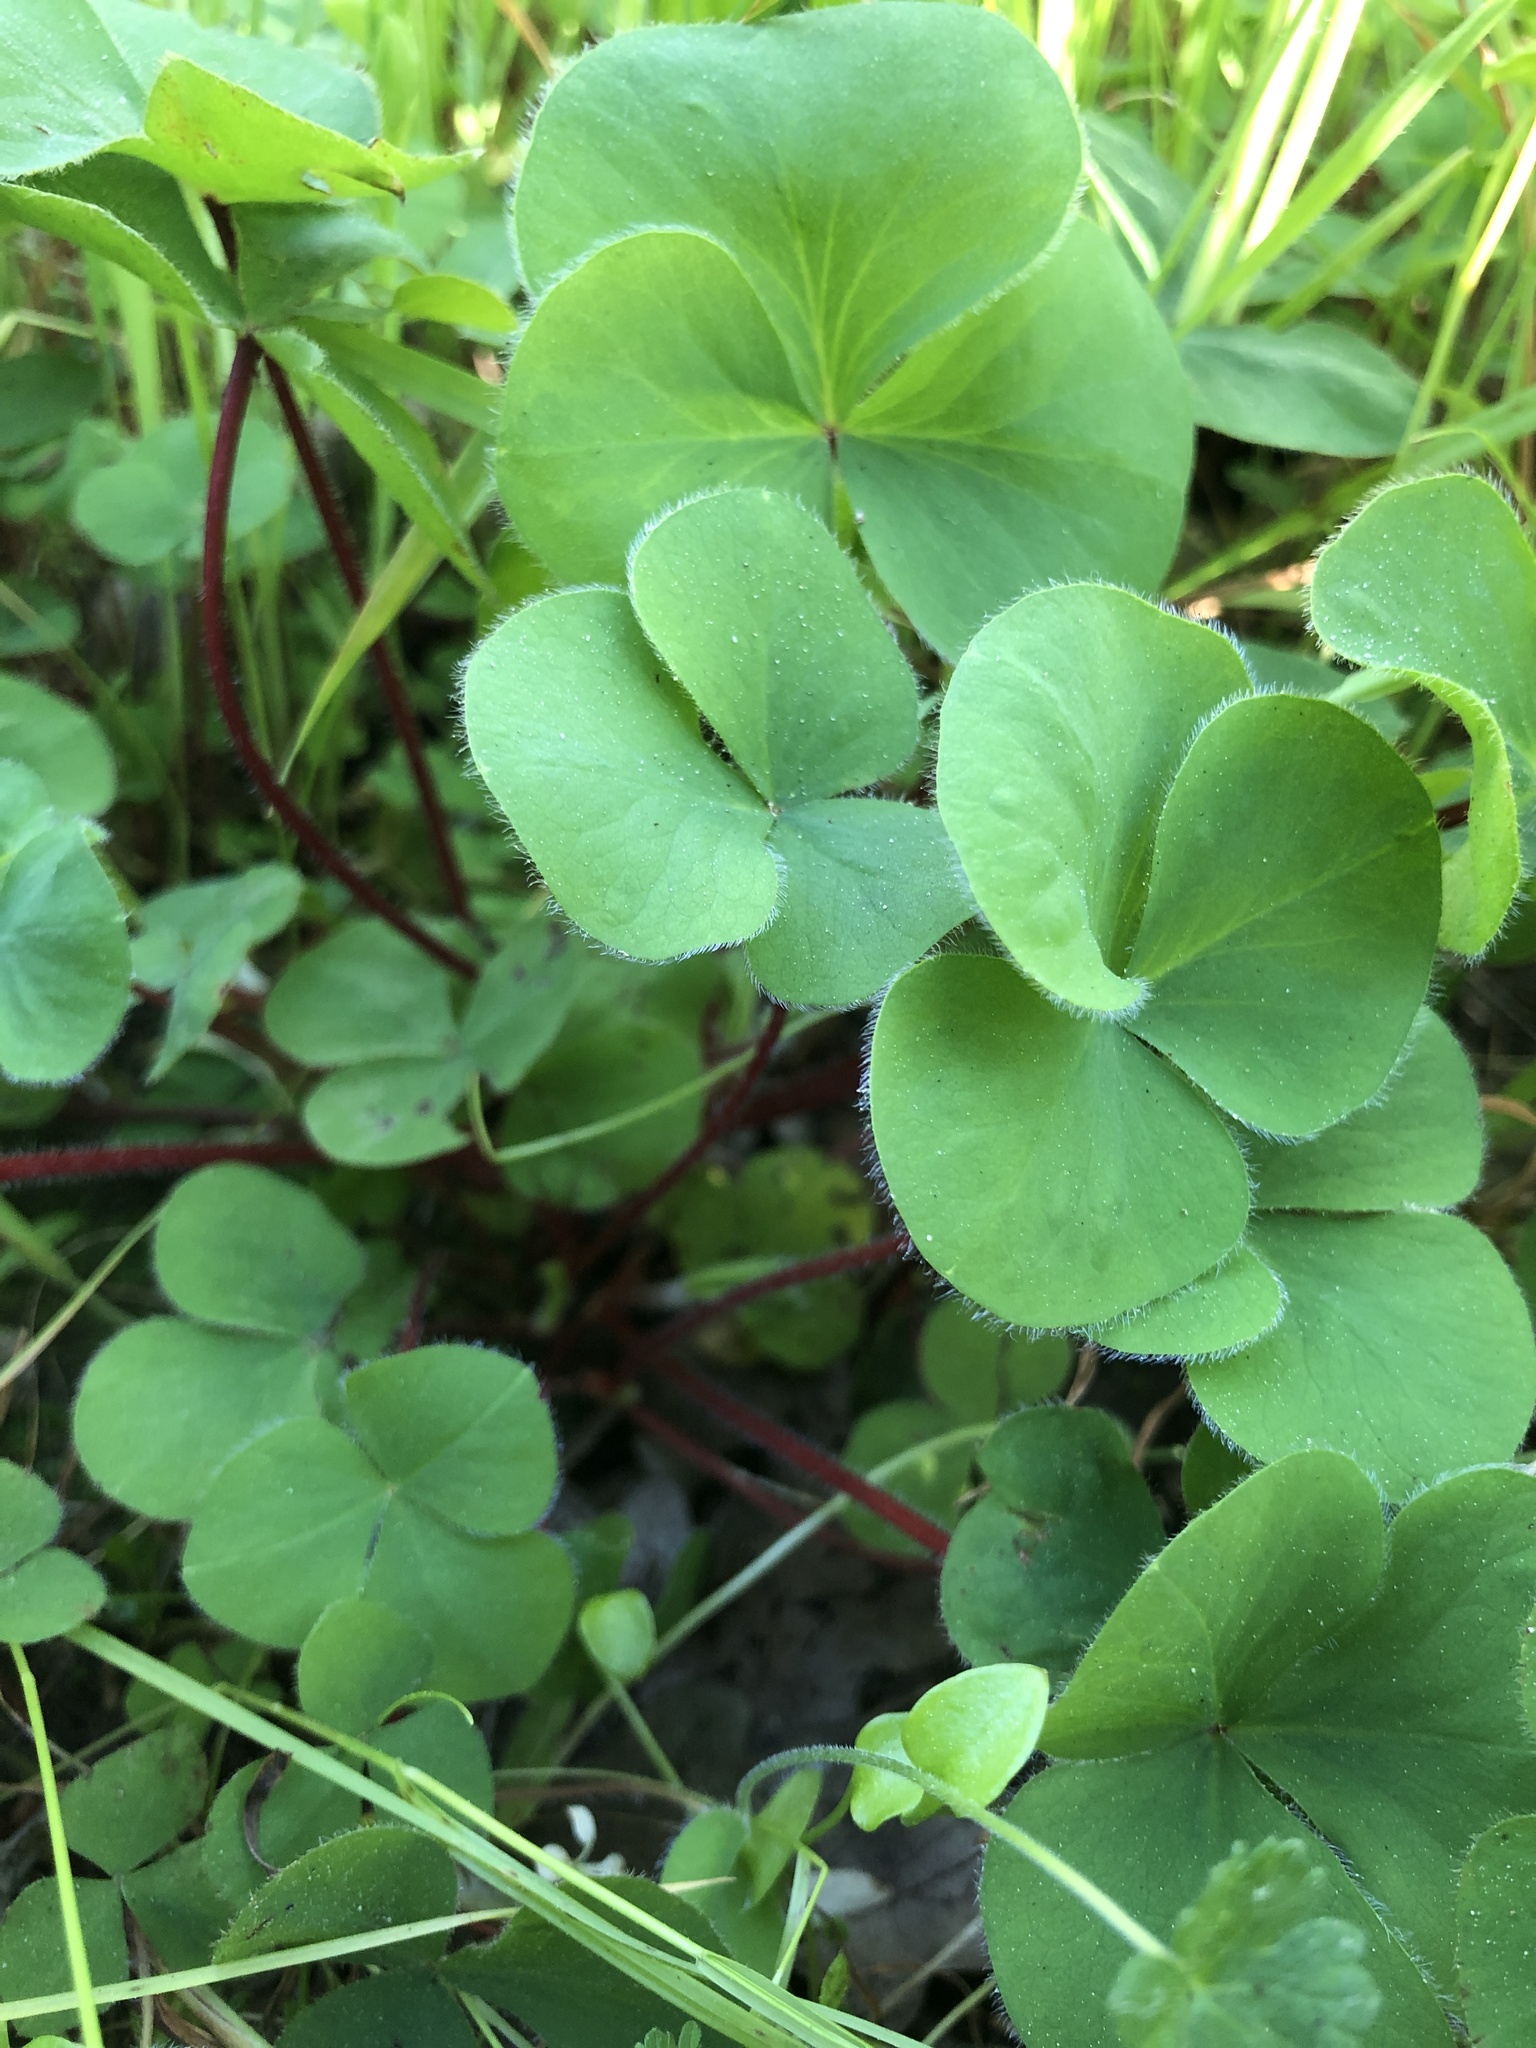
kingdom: Plantae
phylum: Tracheophyta
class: Magnoliopsida
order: Oxalidales
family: Oxalidaceae
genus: Oxalis
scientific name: Oxalis purpurea
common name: Purple woodsorrel
